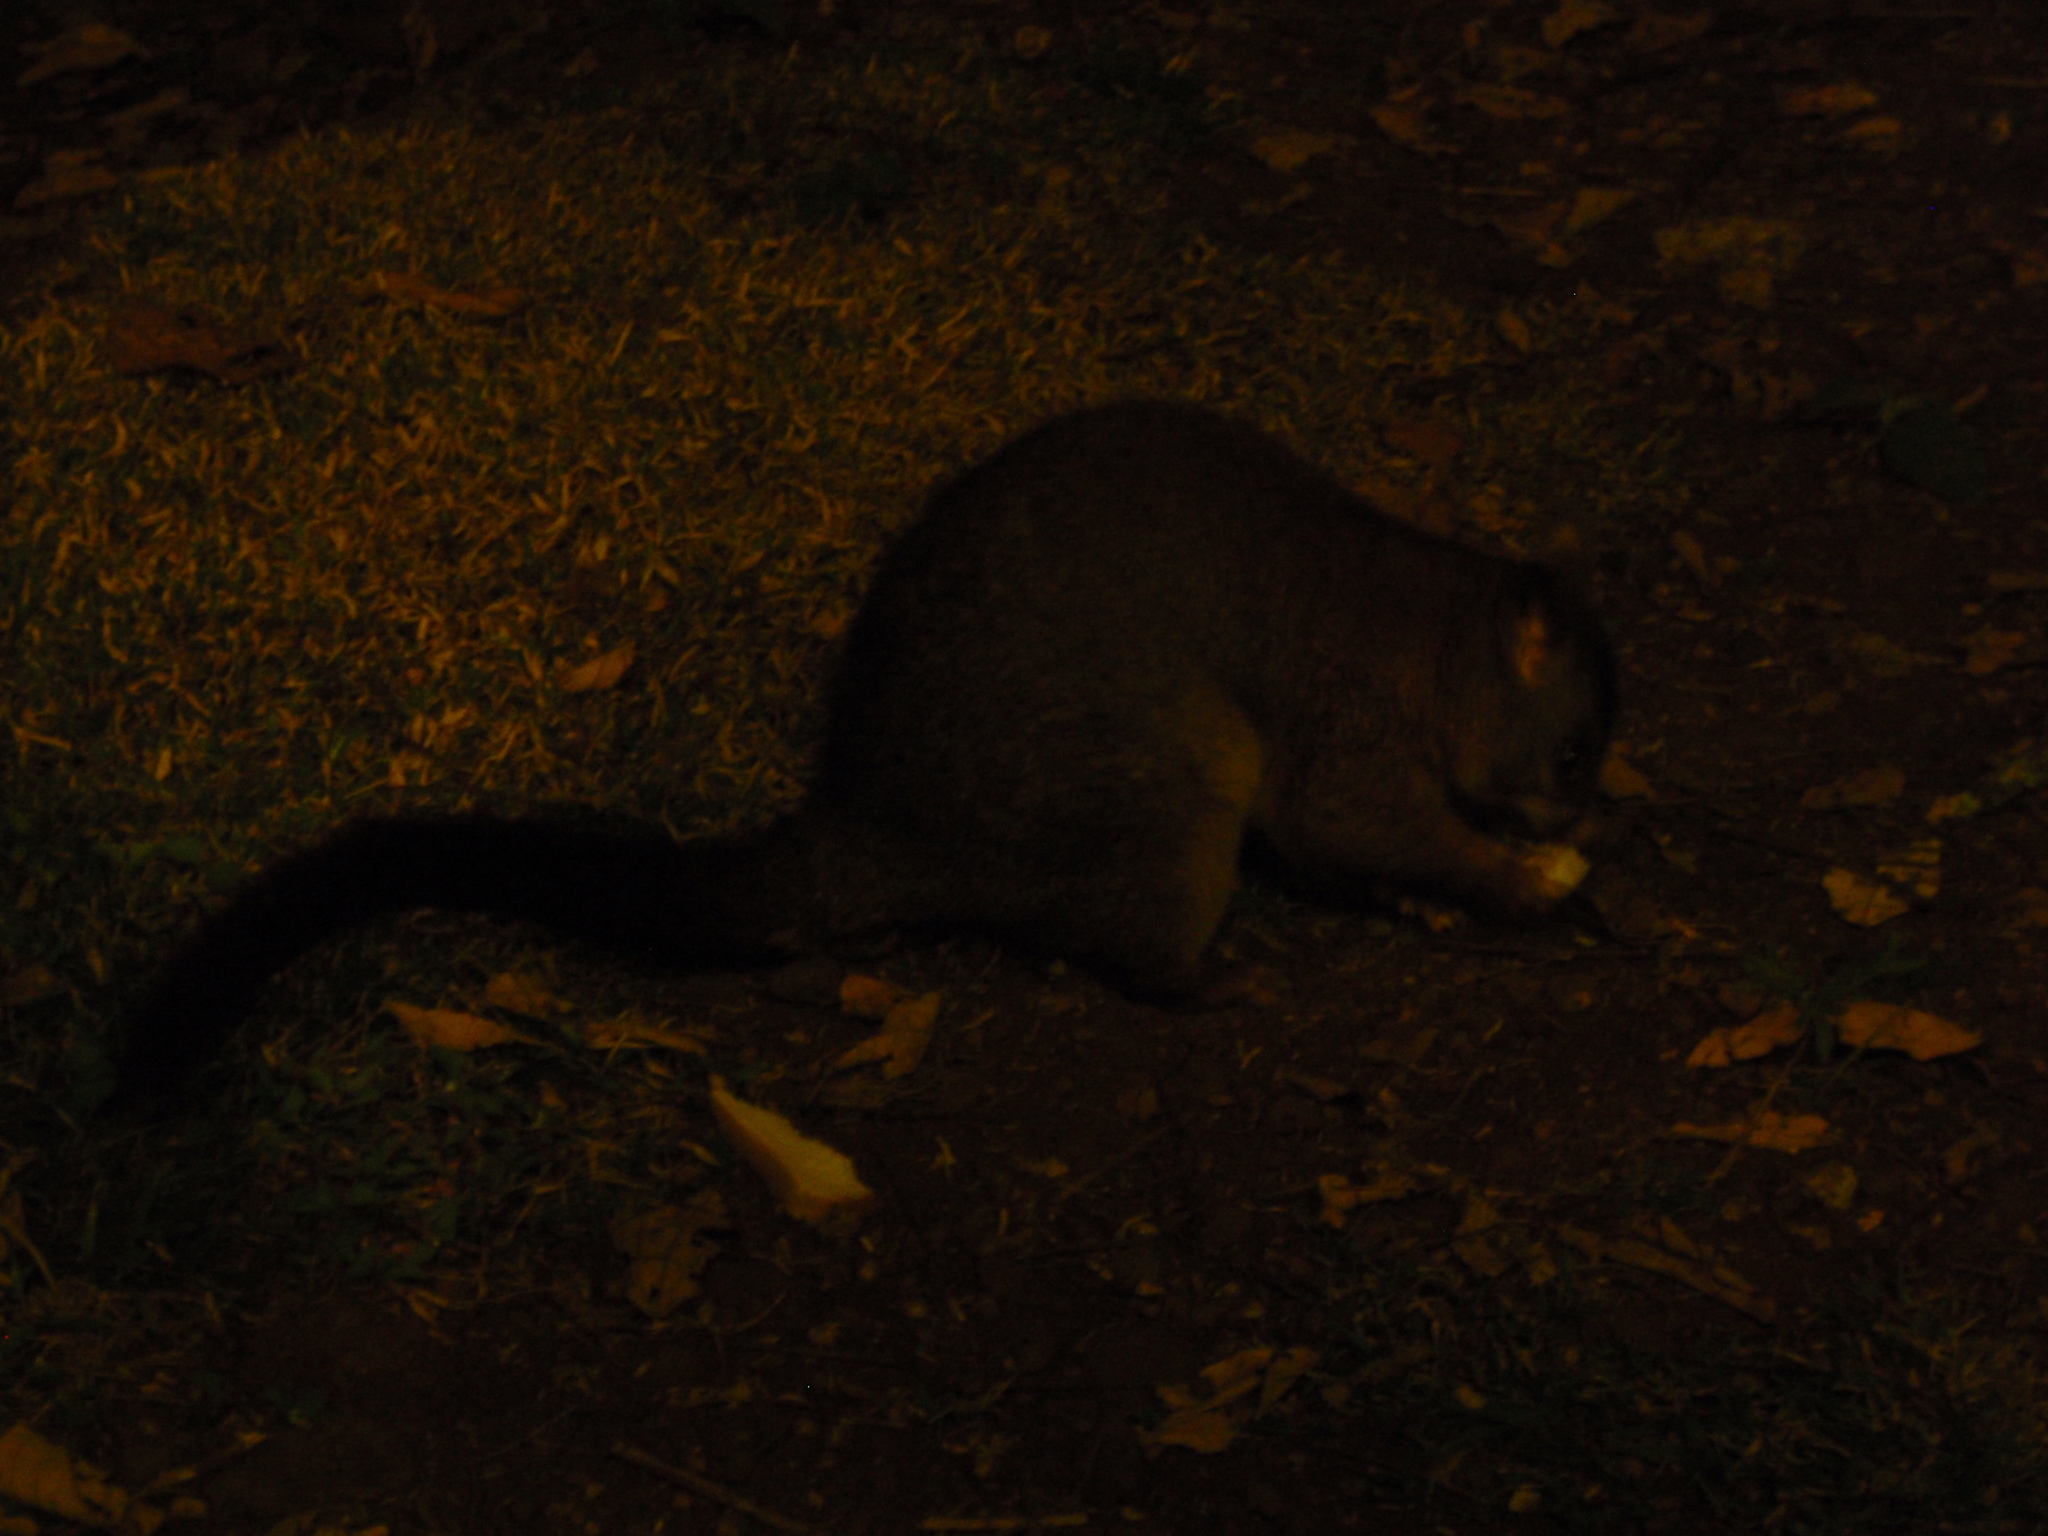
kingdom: Animalia
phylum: Chordata
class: Mammalia
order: Diprotodontia
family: Phalangeridae
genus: Trichosurus
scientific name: Trichosurus vulpecula
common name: Common brushtail
